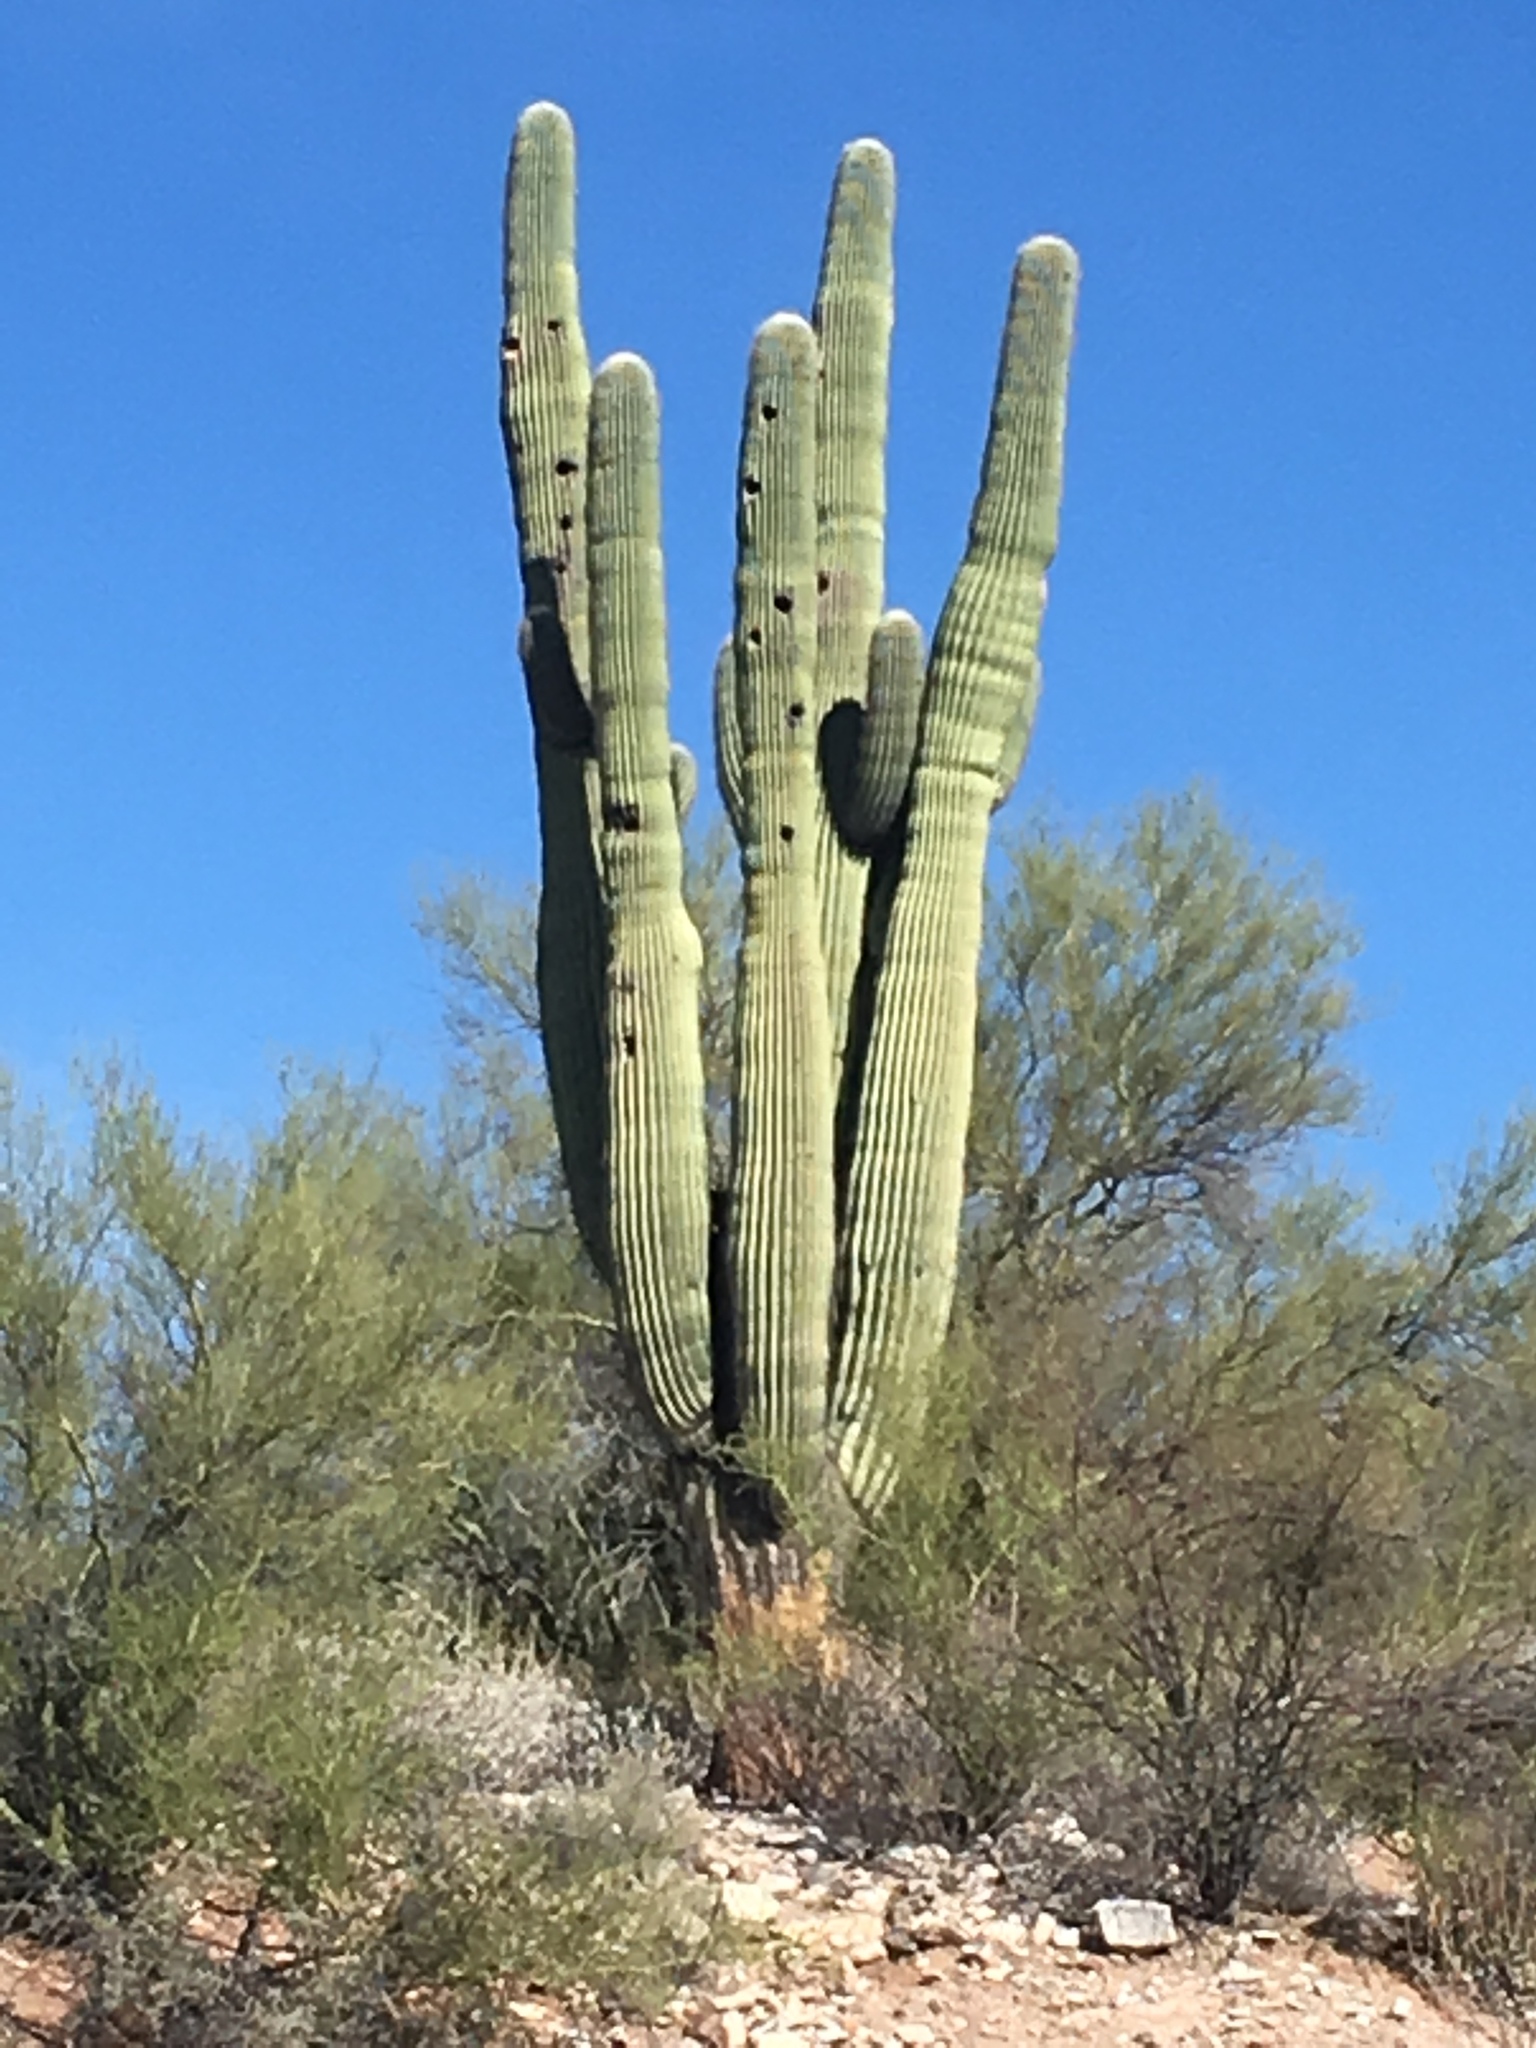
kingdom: Plantae
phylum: Tracheophyta
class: Magnoliopsida
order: Caryophyllales
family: Cactaceae
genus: Carnegiea
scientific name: Carnegiea gigantea
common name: Saguaro
